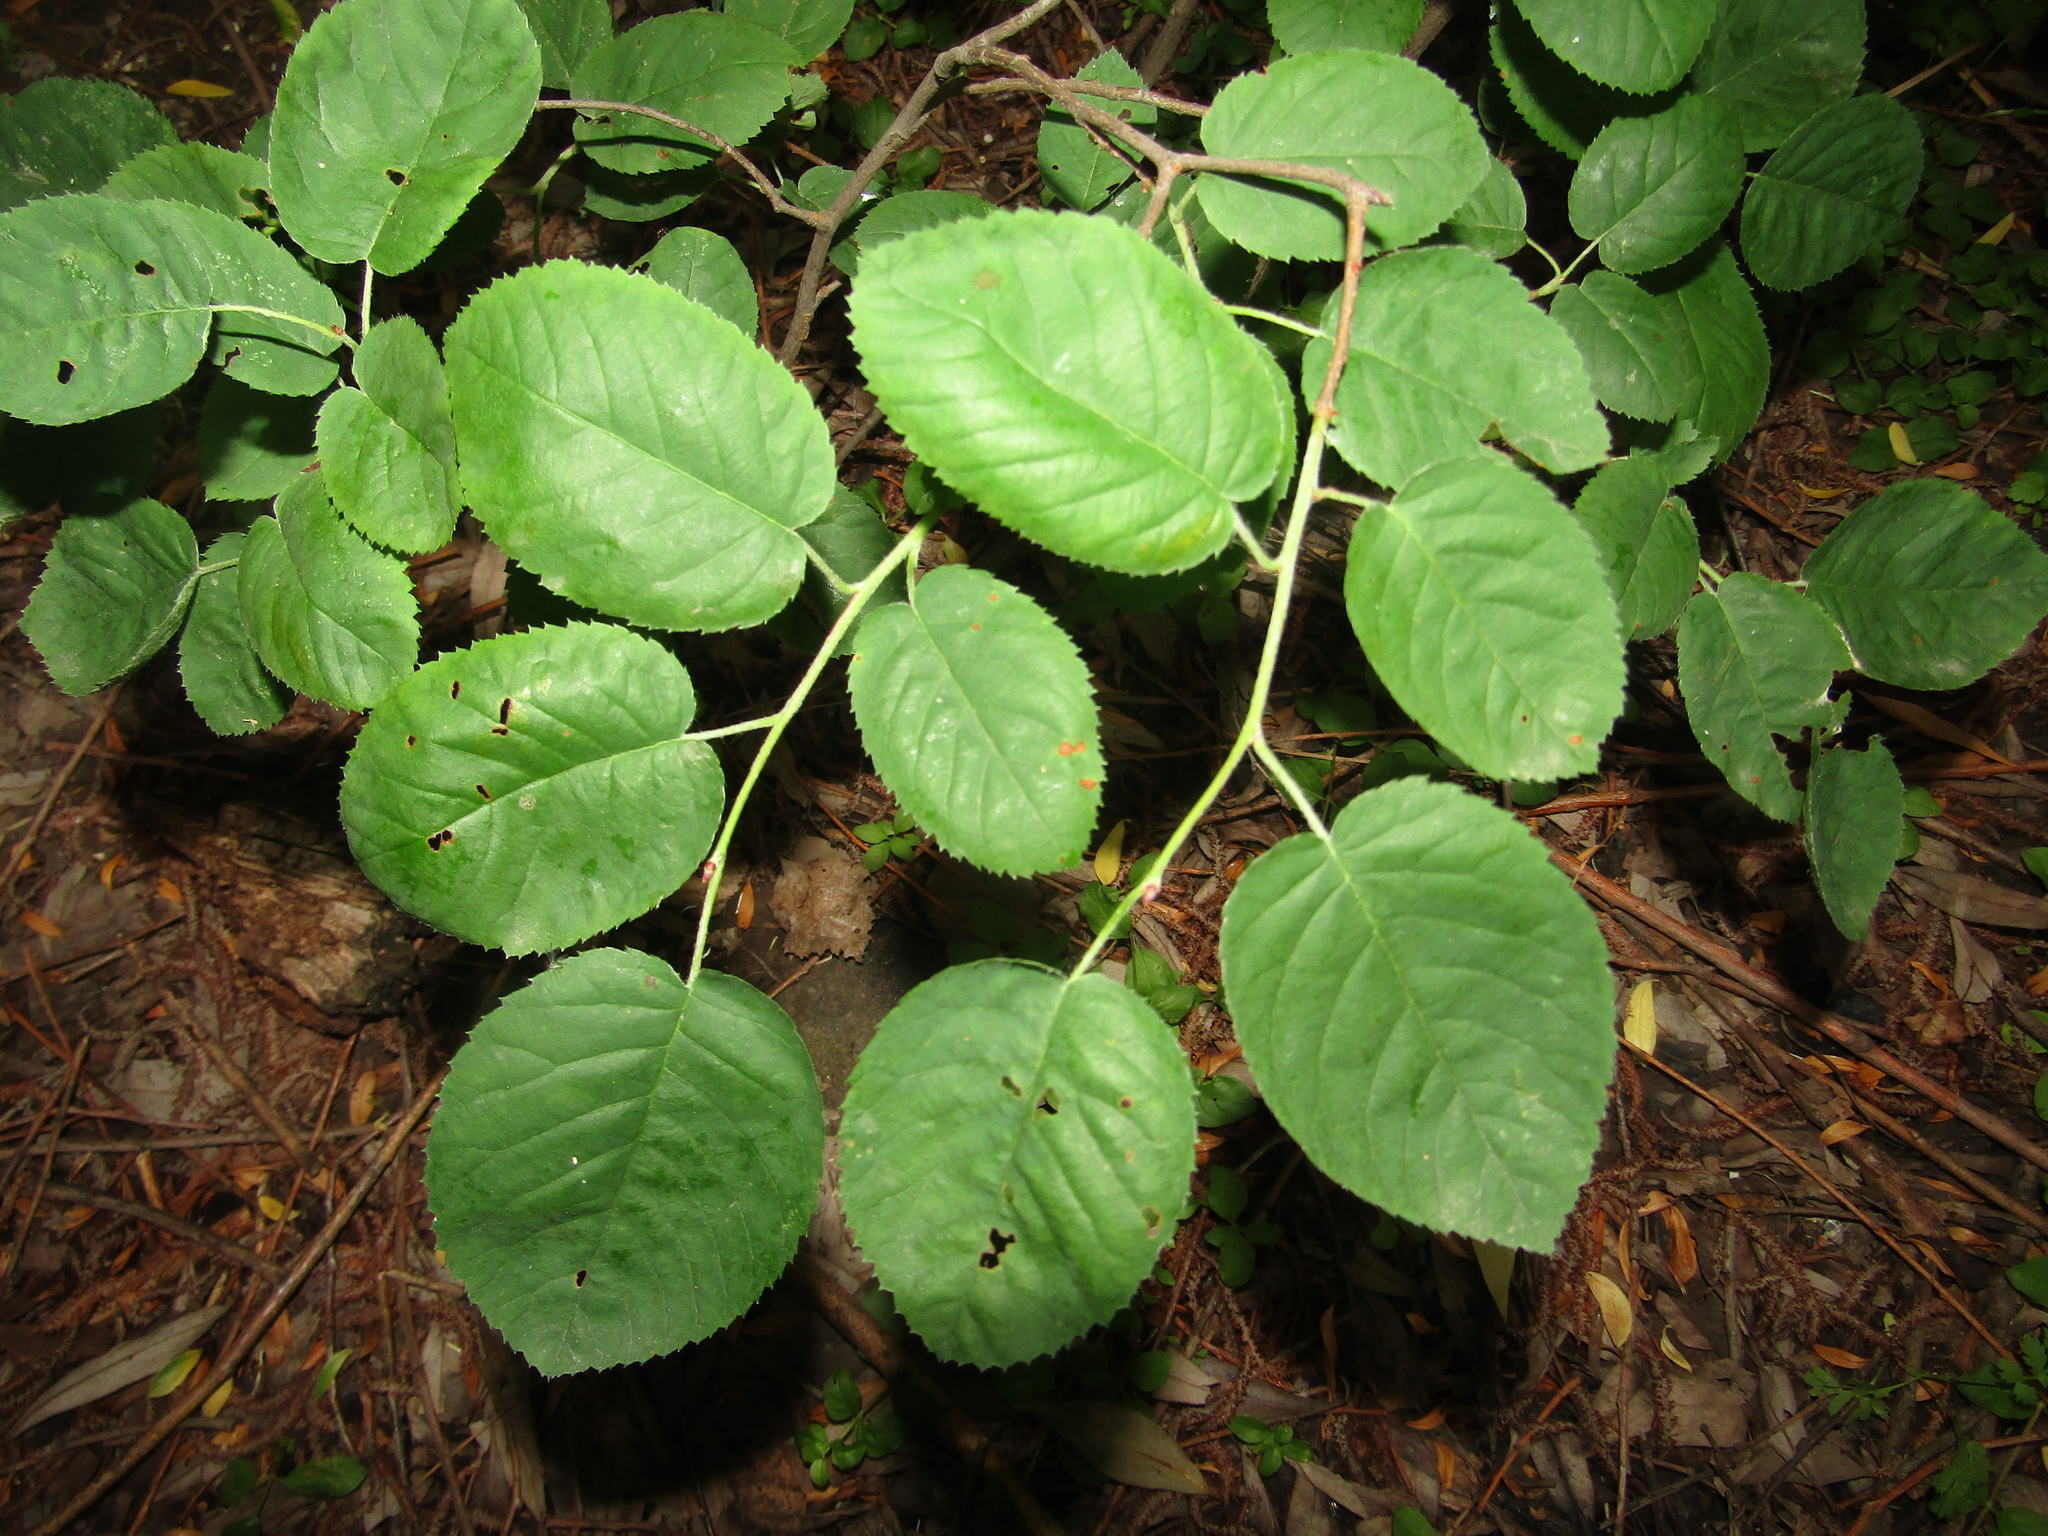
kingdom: Plantae
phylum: Tracheophyta
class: Magnoliopsida
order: Rosales
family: Rosaceae
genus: Amelanchier
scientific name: Amelanchier
